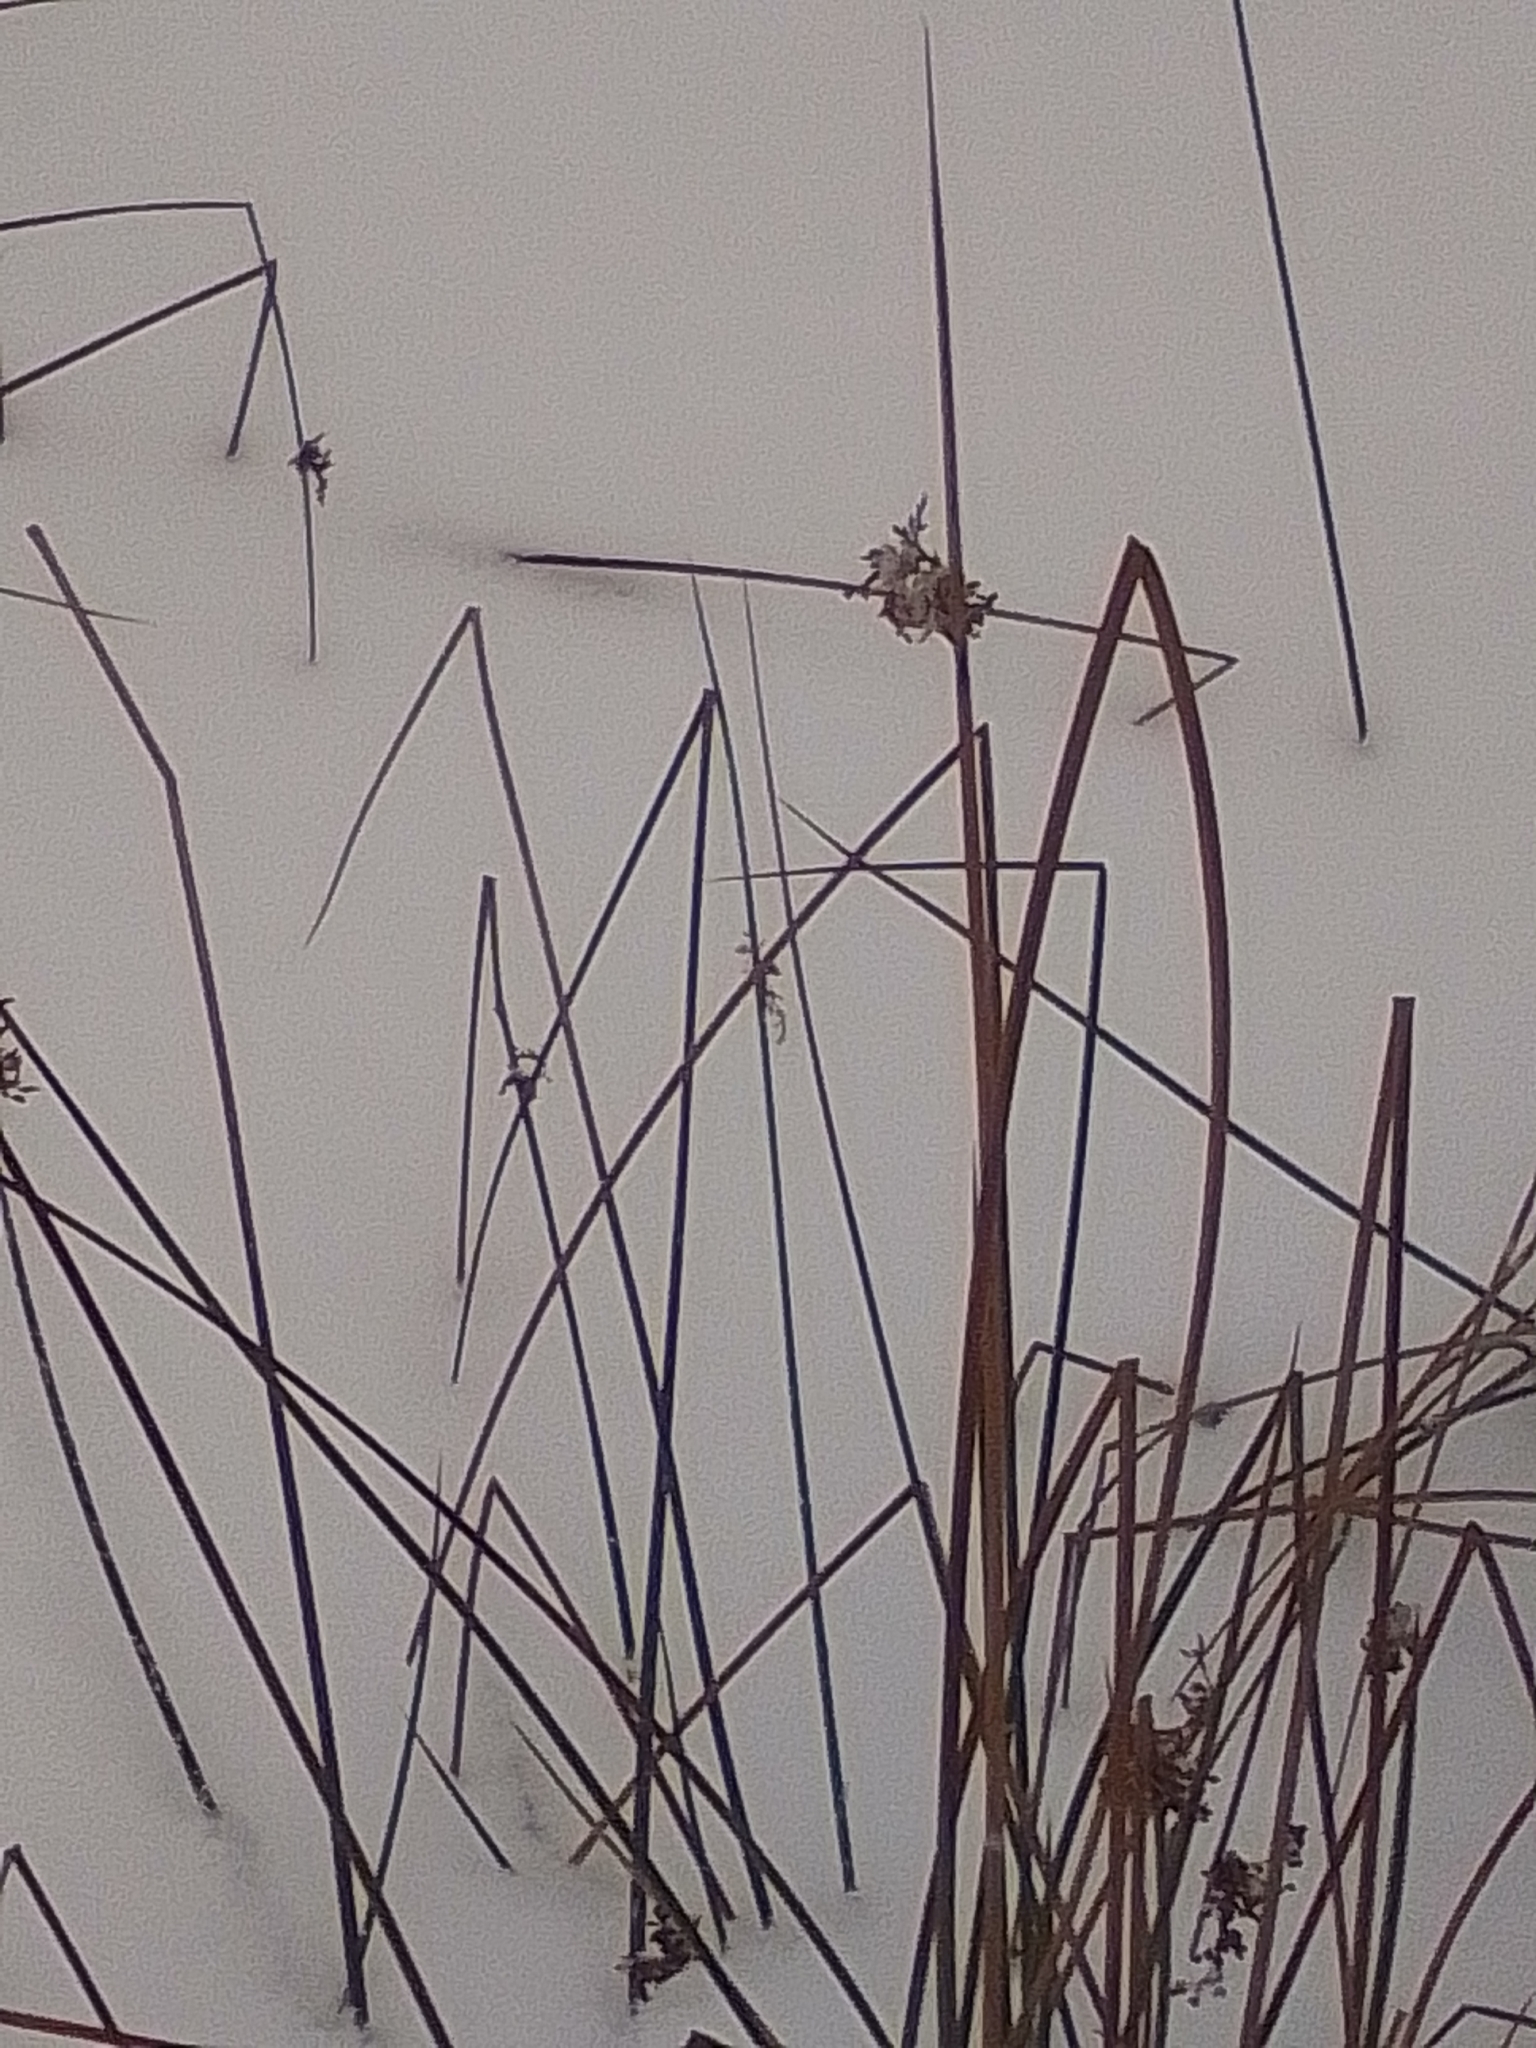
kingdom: Plantae
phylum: Tracheophyta
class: Liliopsida
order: Poales
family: Juncaceae
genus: Juncus
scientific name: Juncus effusus
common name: Soft rush
